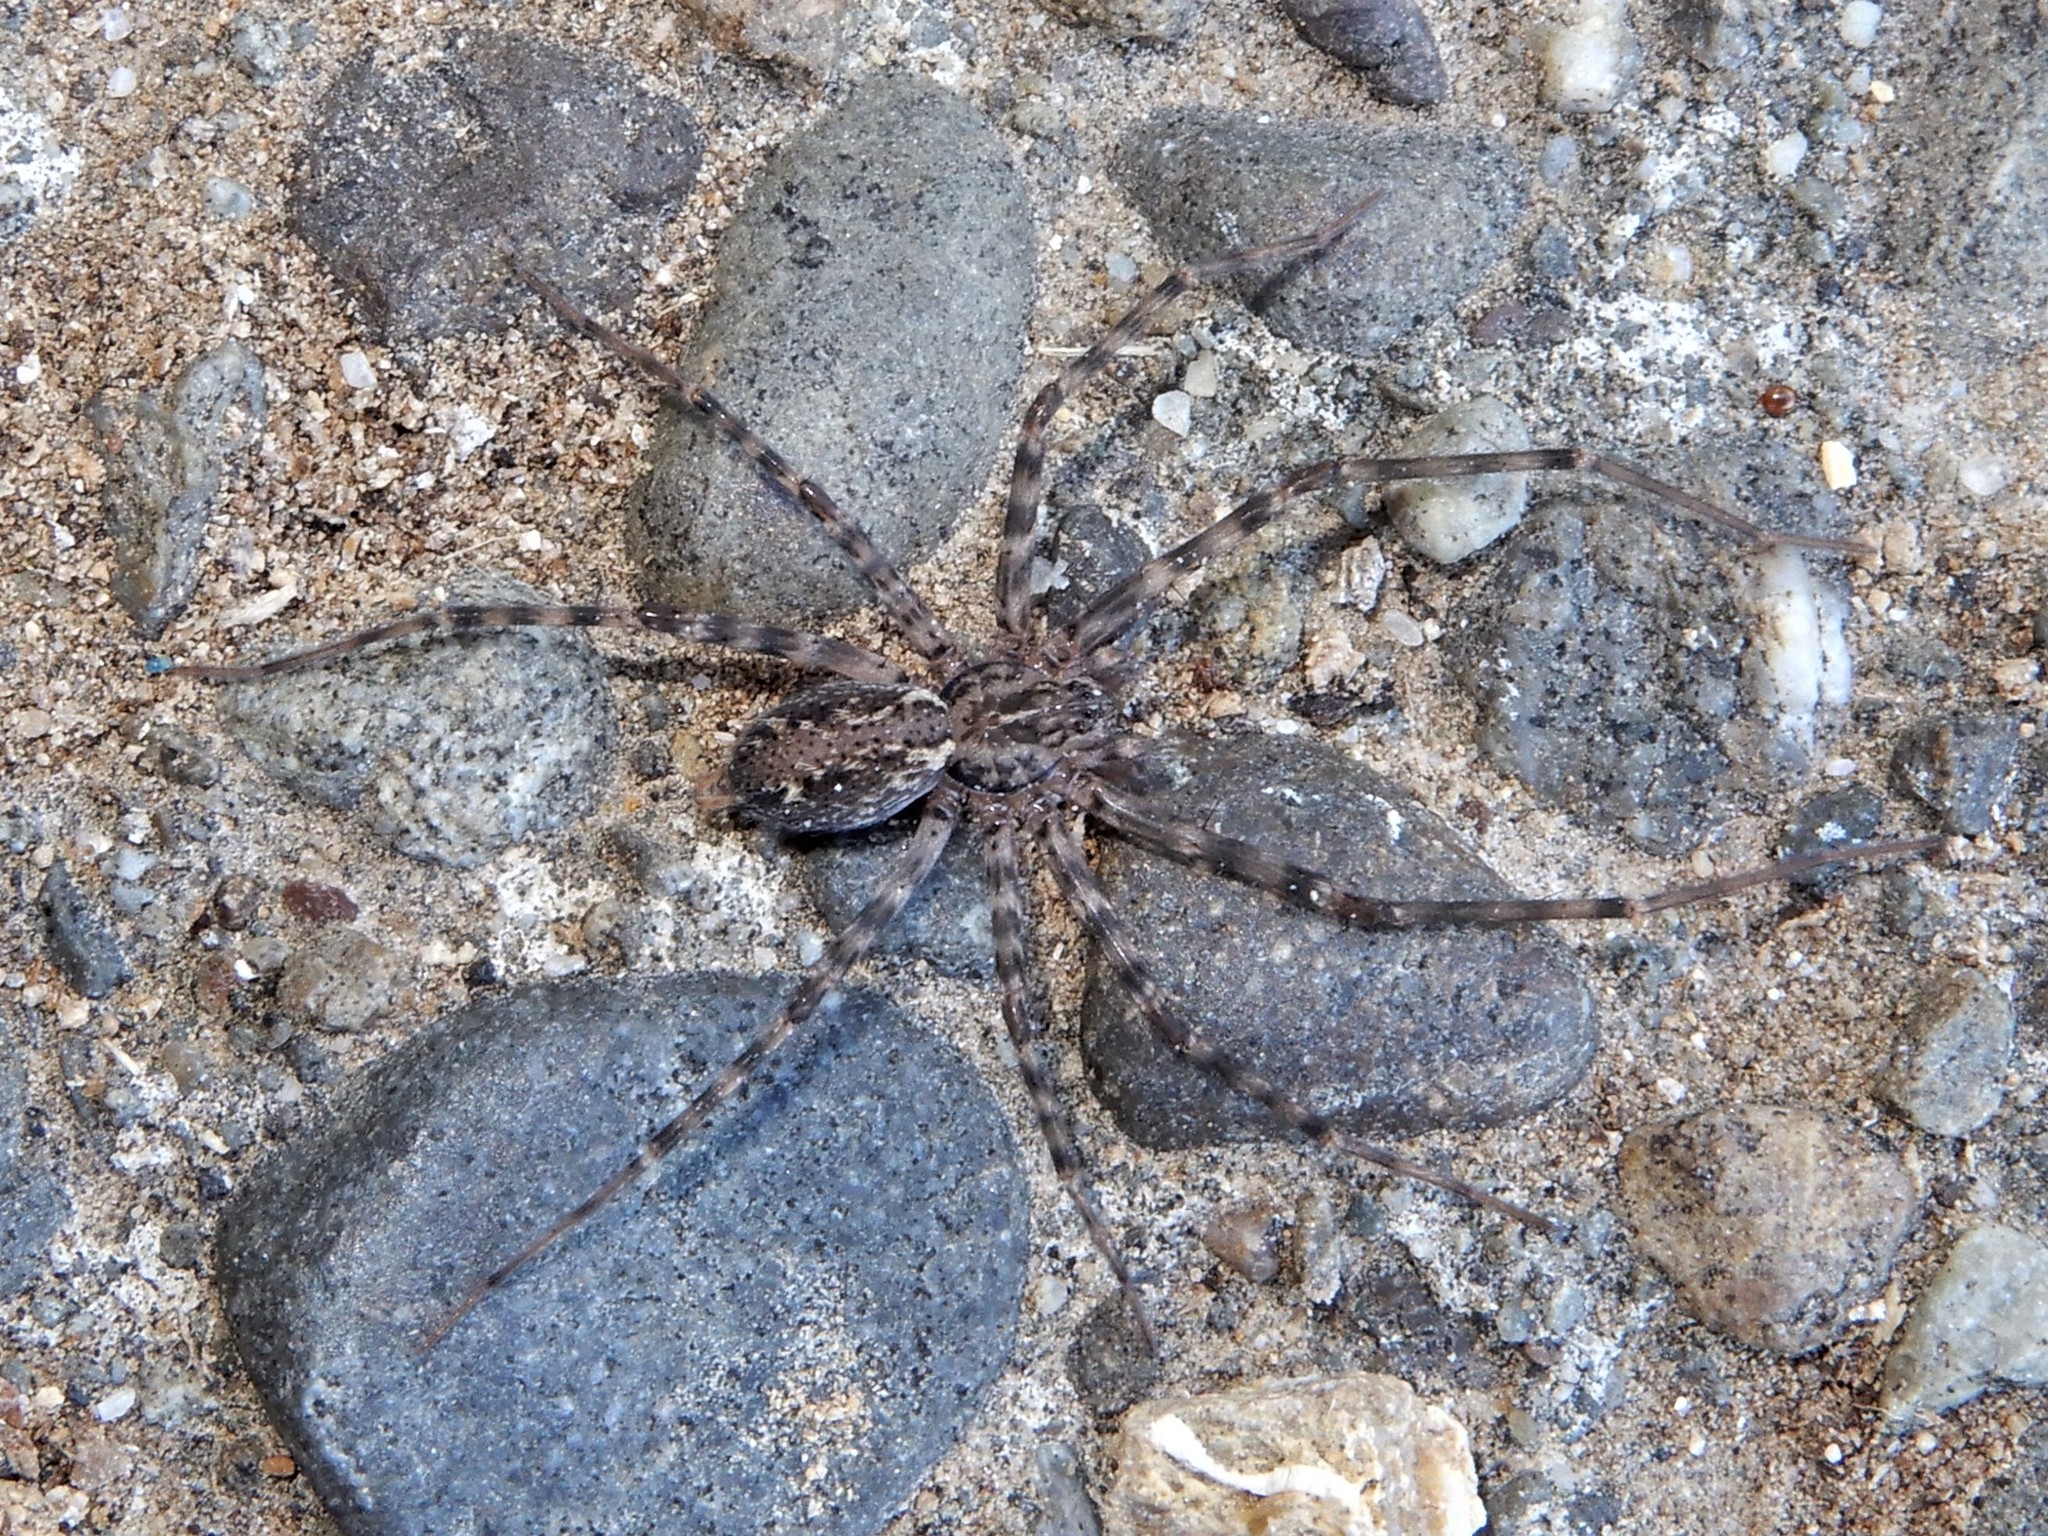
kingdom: Animalia
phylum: Arthropoda
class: Arachnida
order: Araneae
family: Stiphidiidae
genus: Stiphidion
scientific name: Stiphidion facetum
